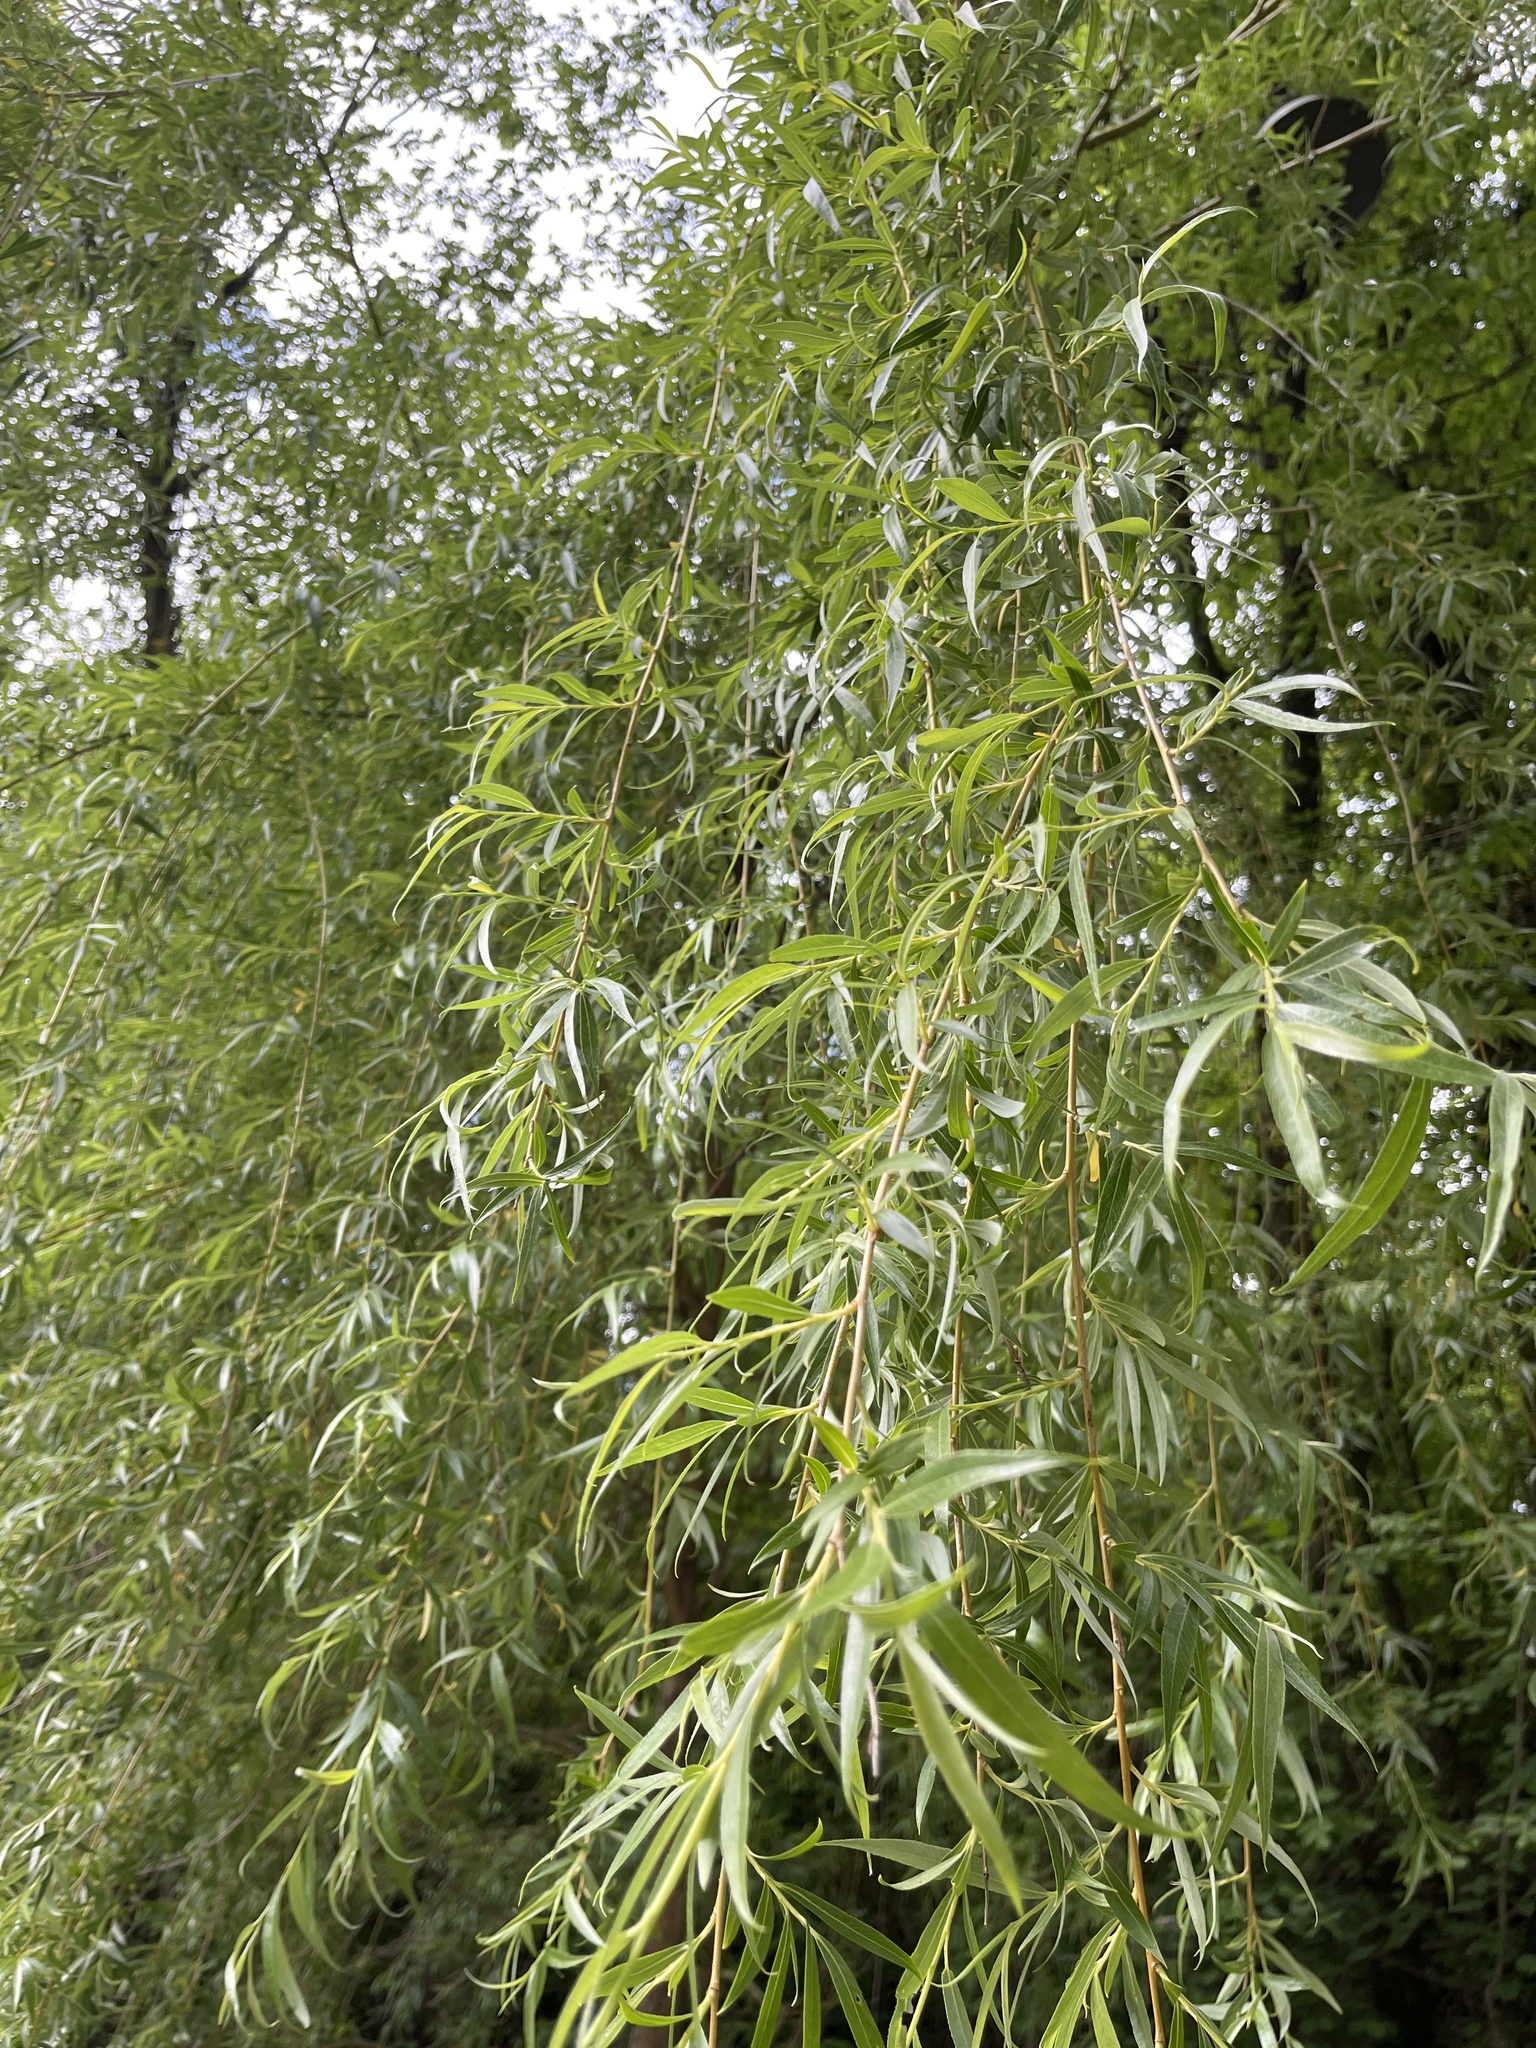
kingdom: Plantae
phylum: Tracheophyta
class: Magnoliopsida
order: Malpighiales
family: Salicaceae
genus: Salix
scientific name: Salix pendulina
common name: Wisconsin weeping willow
